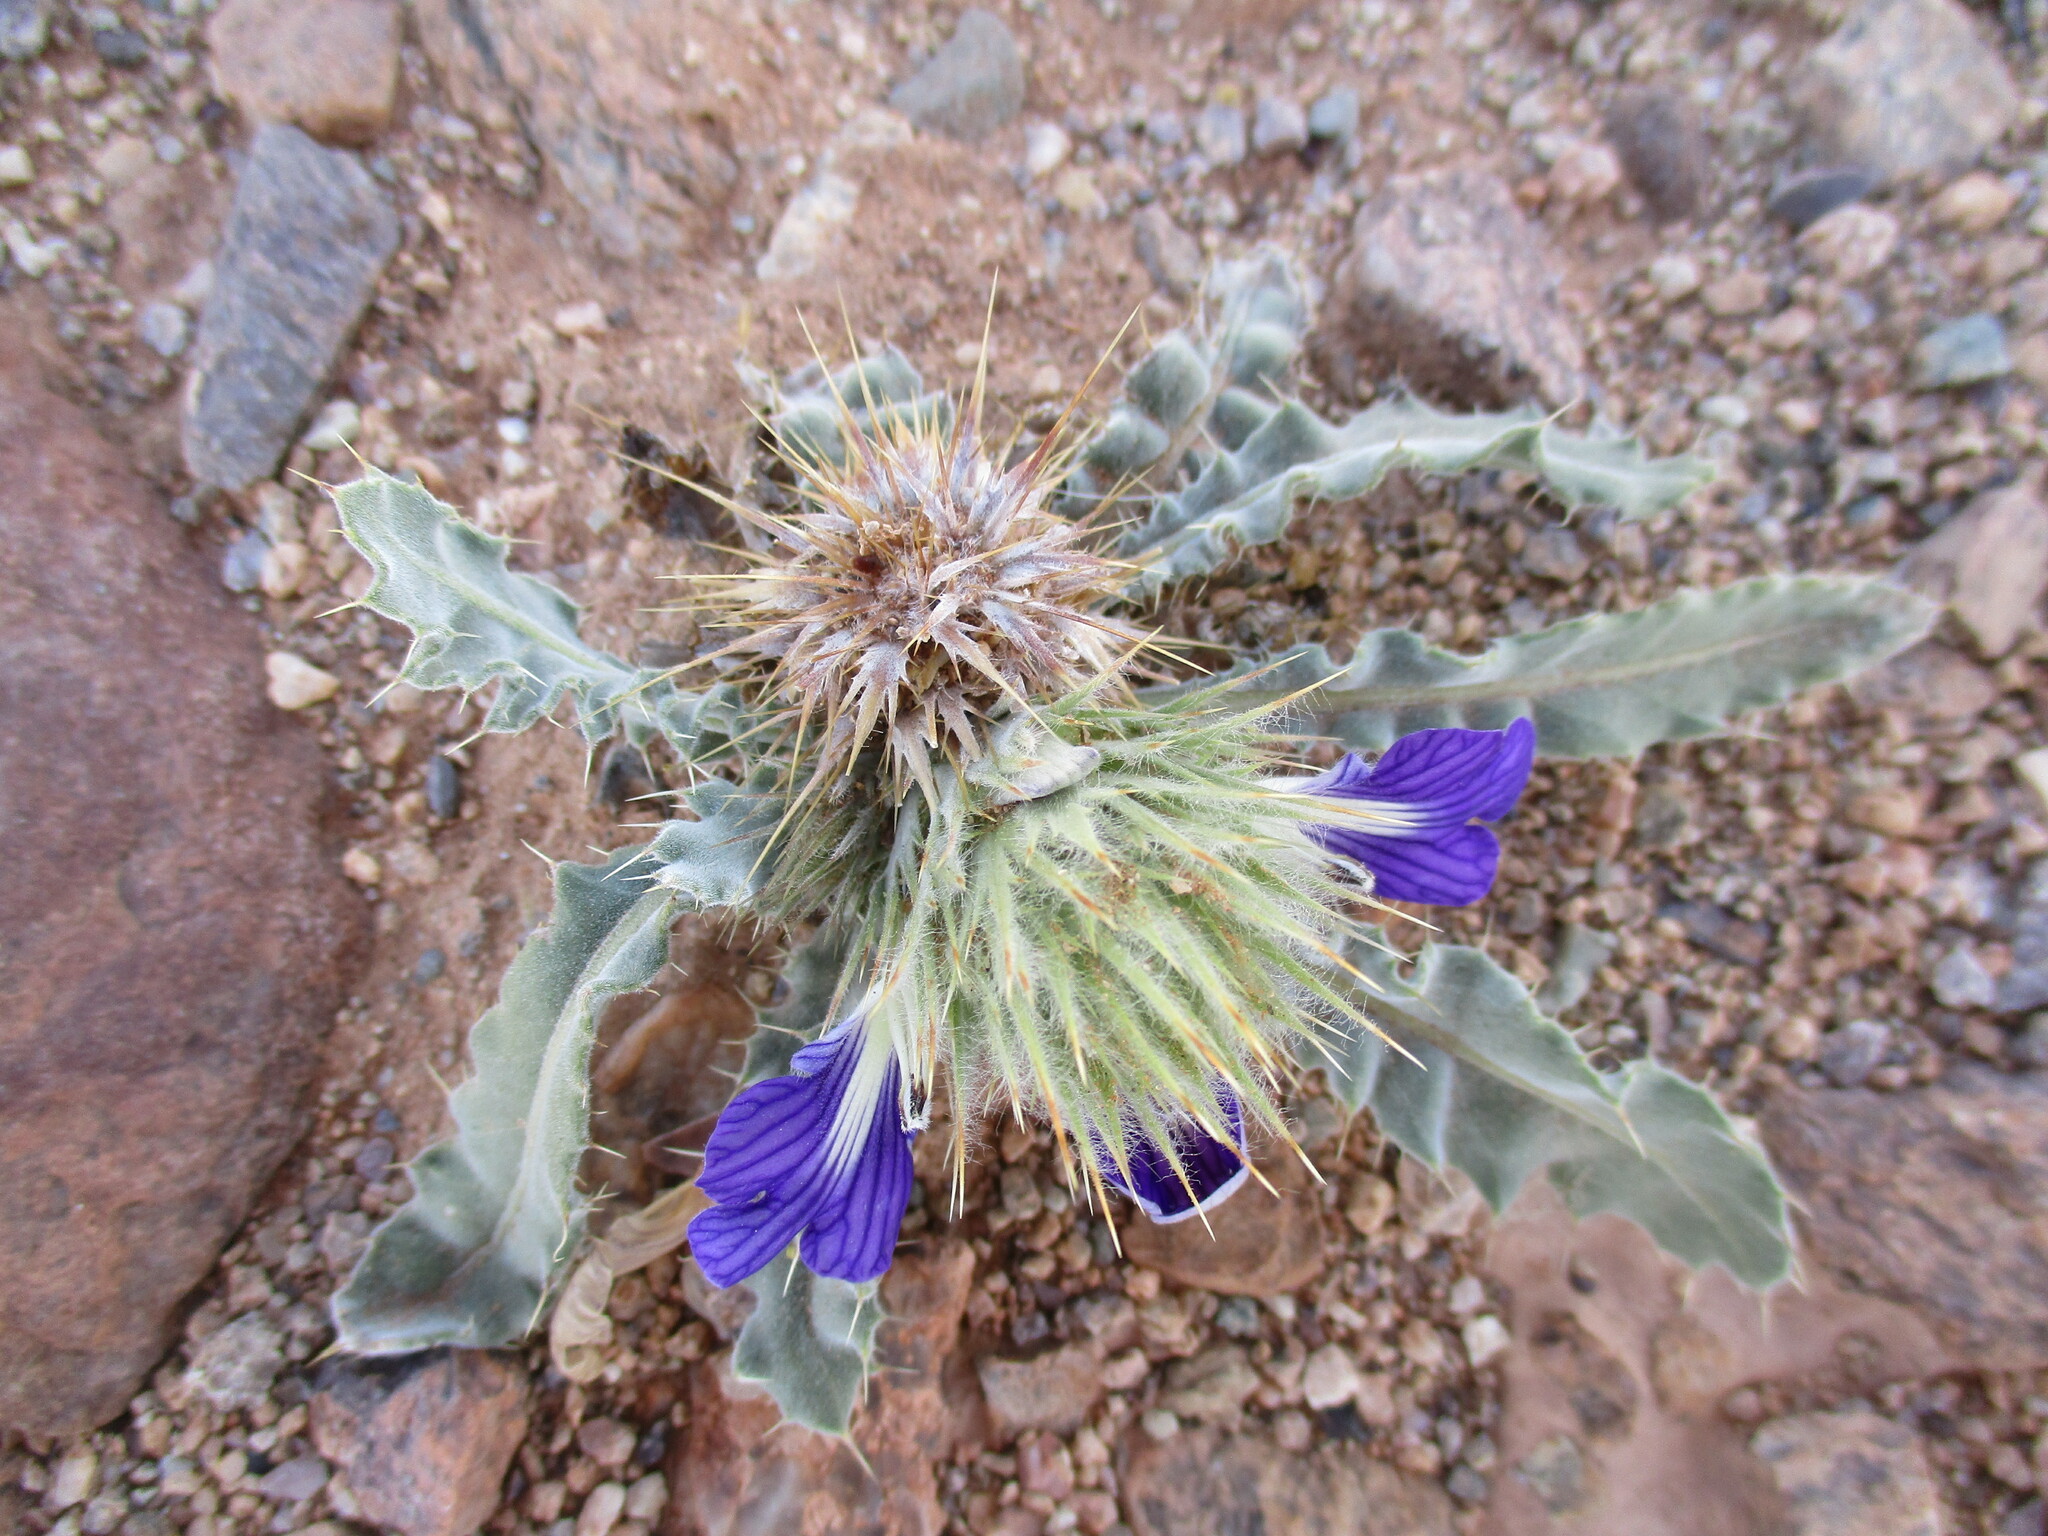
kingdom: Plantae
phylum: Tracheophyta
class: Magnoliopsida
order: Lamiales
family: Acanthaceae
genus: Acanthopsis
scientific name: Acanthopsis disperma
